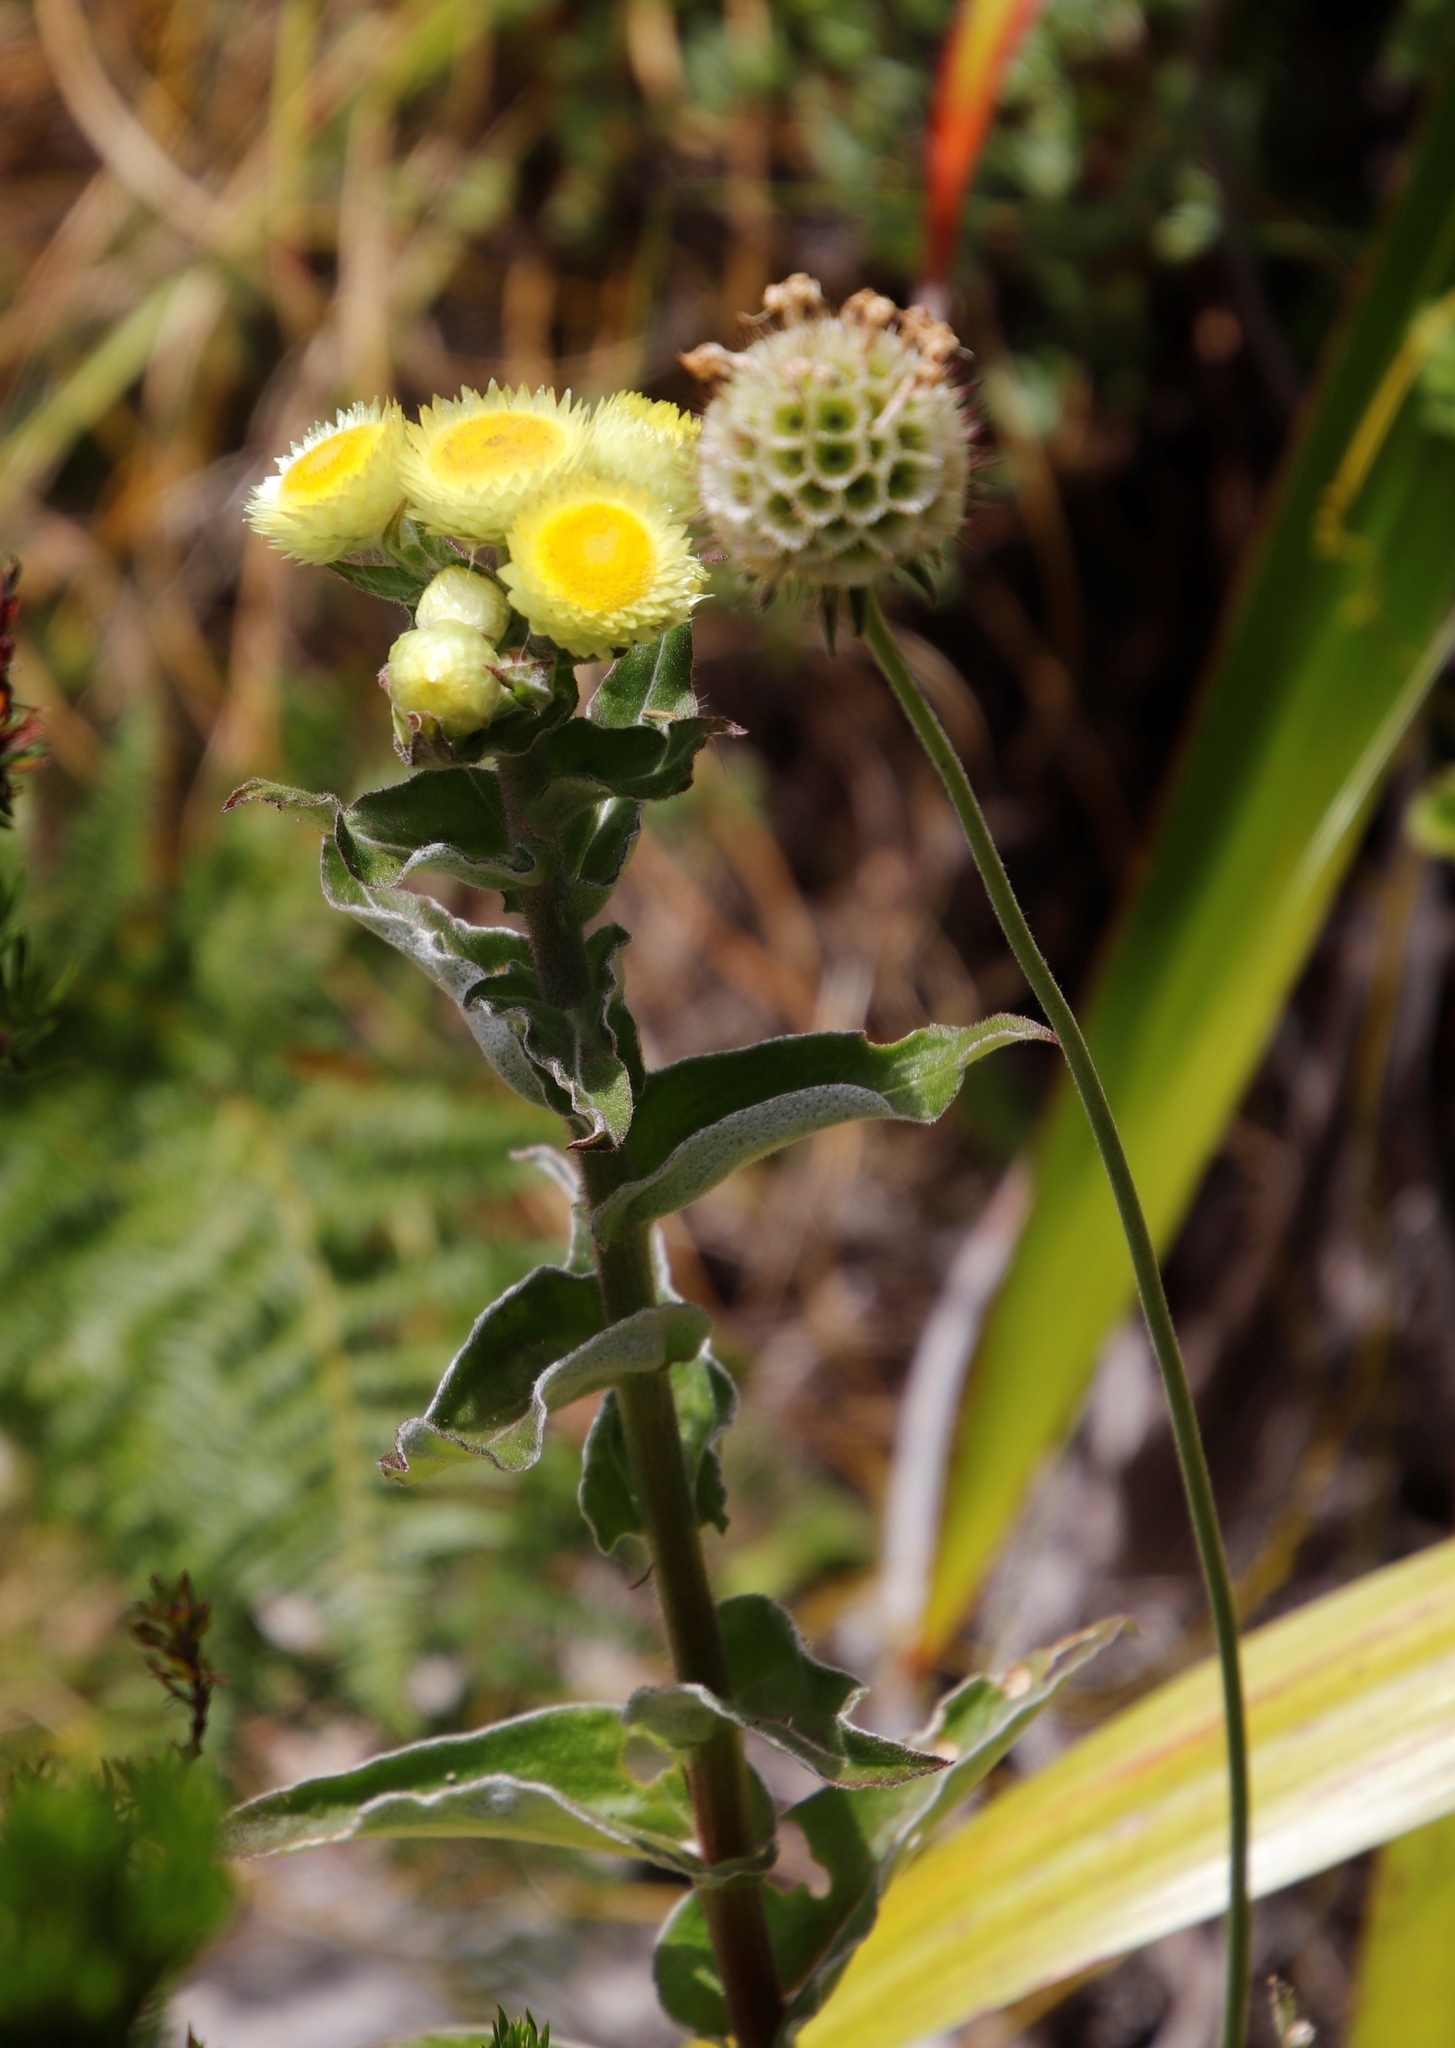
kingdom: Plantae
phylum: Tracheophyta
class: Magnoliopsida
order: Asterales
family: Asteraceae
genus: Helichrysum
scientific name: Helichrysum foetidum
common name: Stinking everlasting
